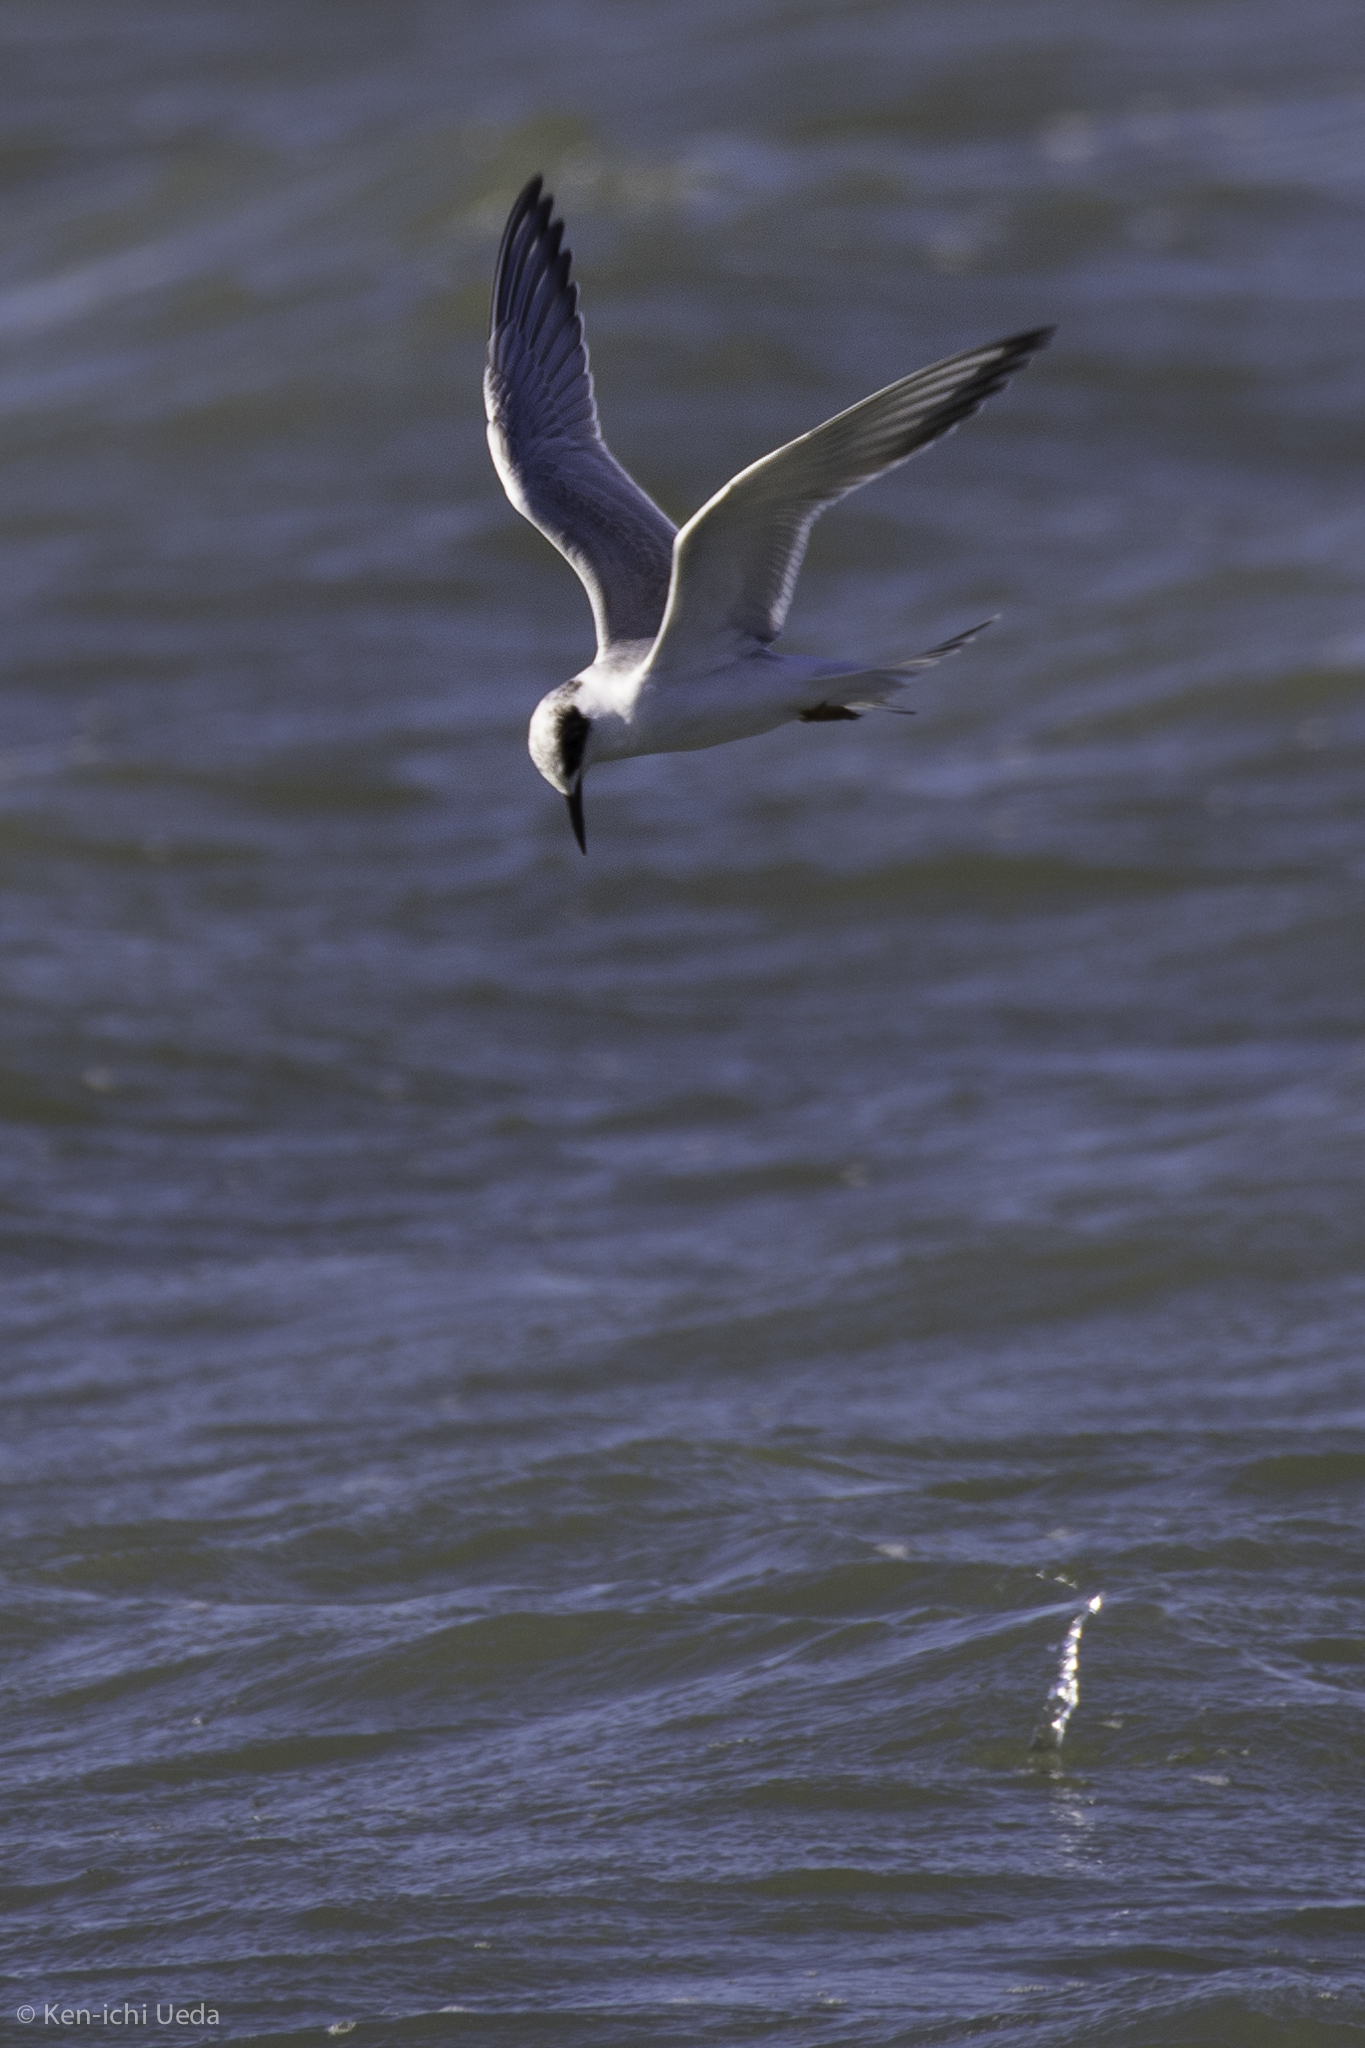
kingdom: Animalia
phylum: Chordata
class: Aves
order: Charadriiformes
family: Laridae
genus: Sterna
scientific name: Sterna forsteri
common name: Forster's tern
